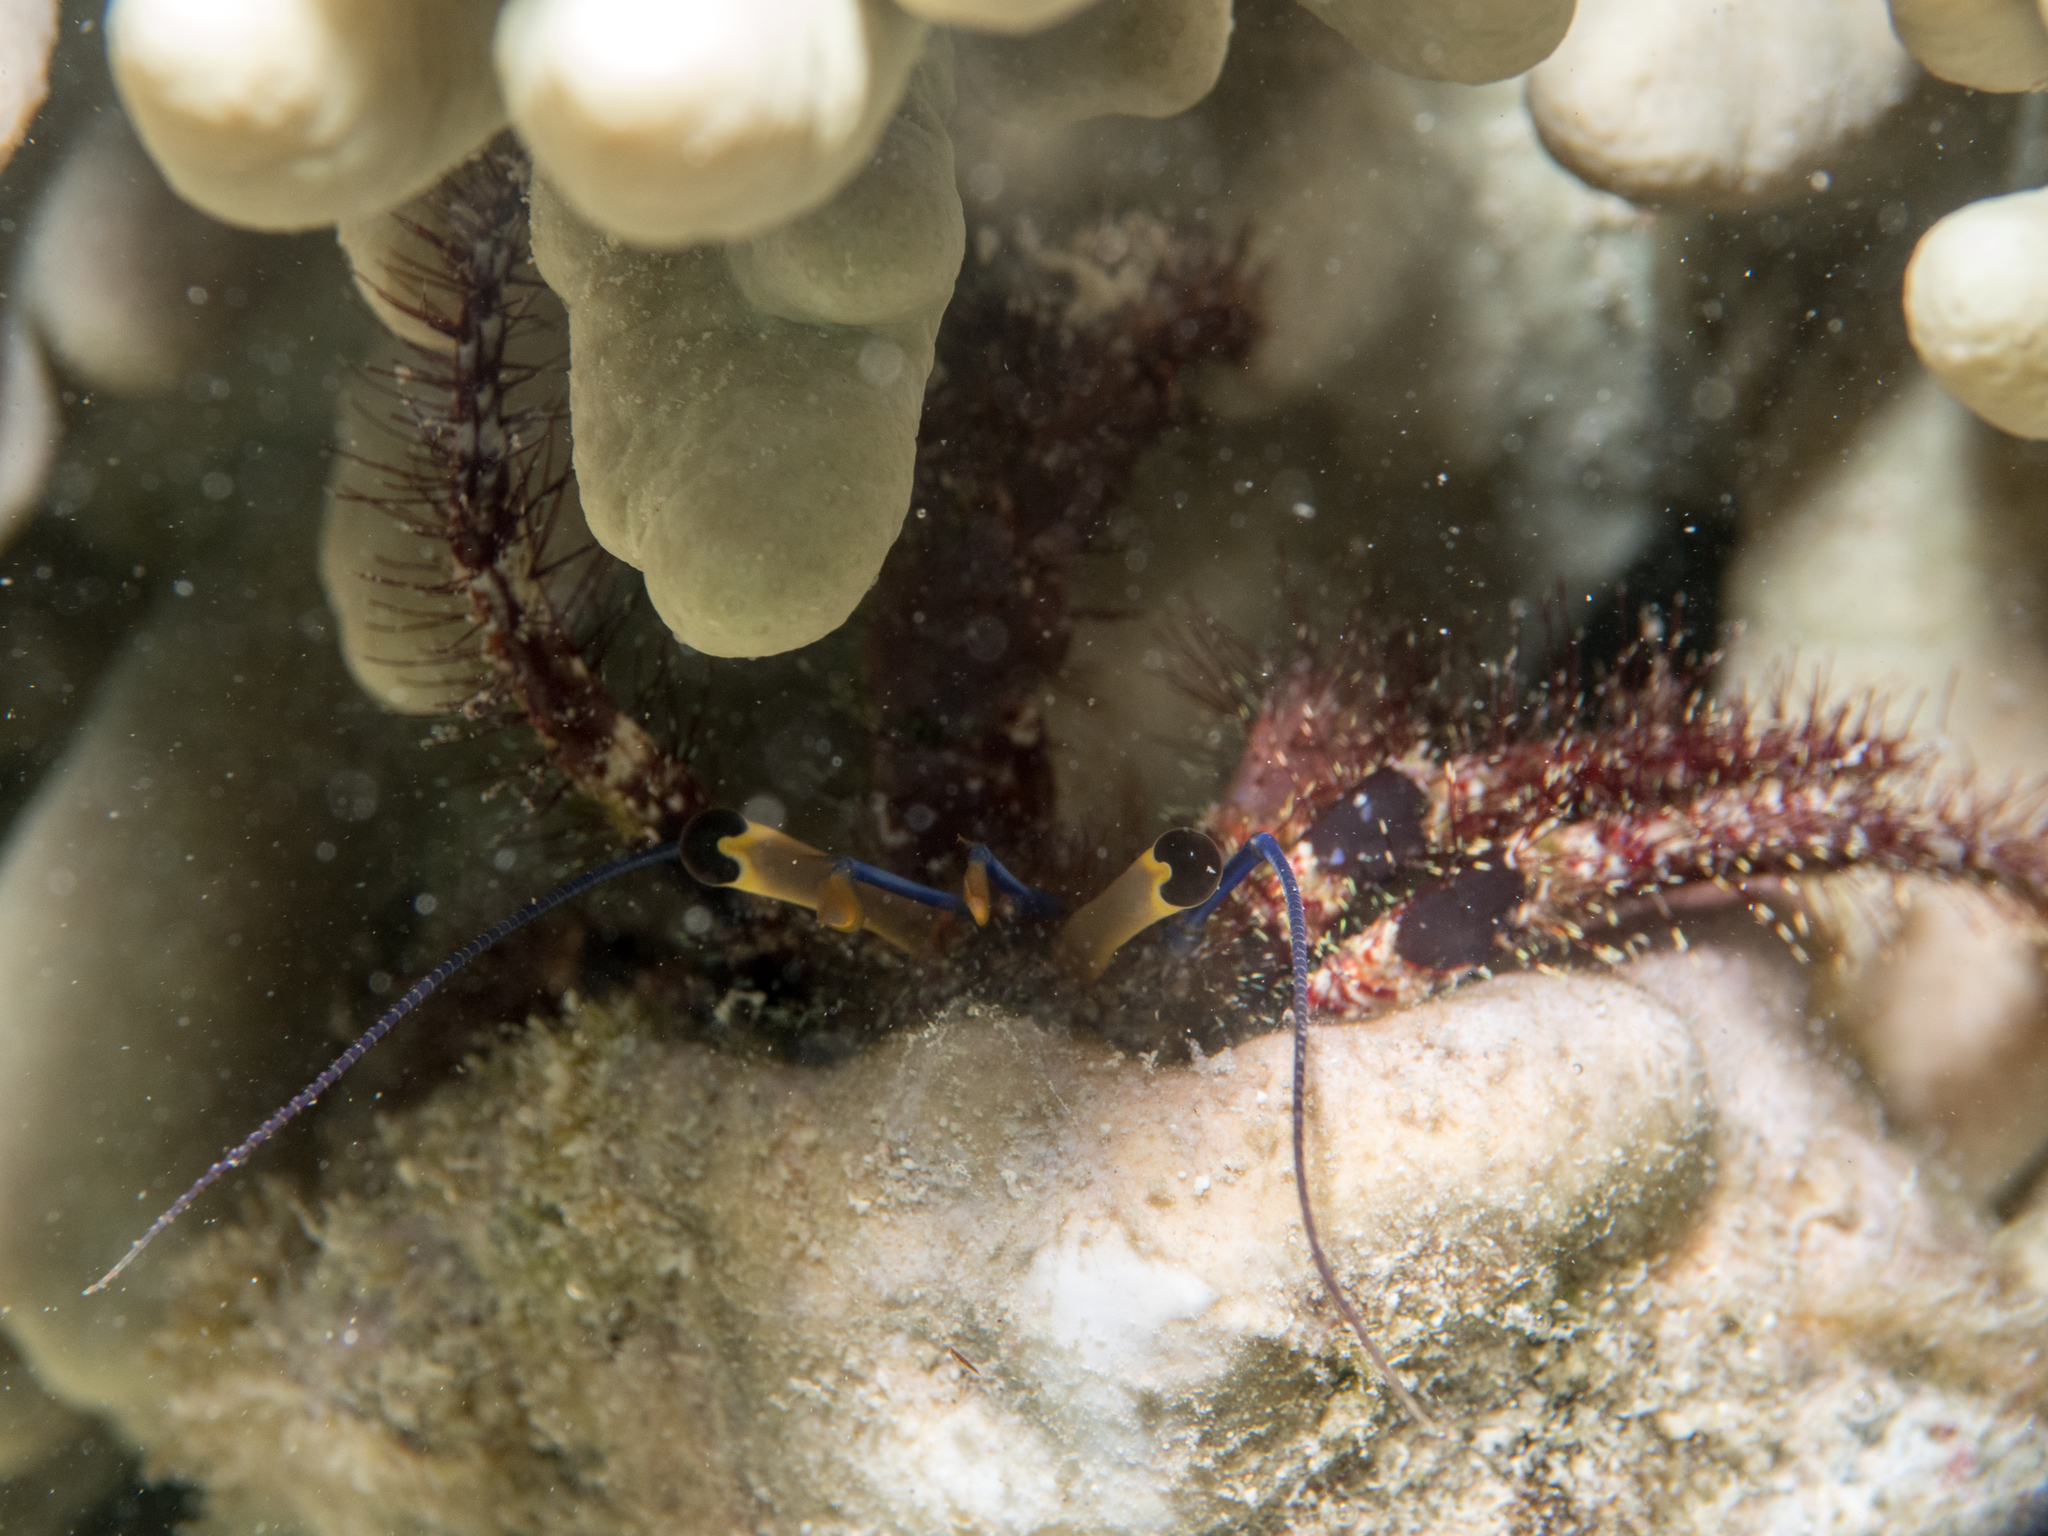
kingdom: Animalia
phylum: Arthropoda
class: Malacostraca
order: Decapoda
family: Diogenidae
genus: Dardanus
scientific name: Dardanus lagopodes
